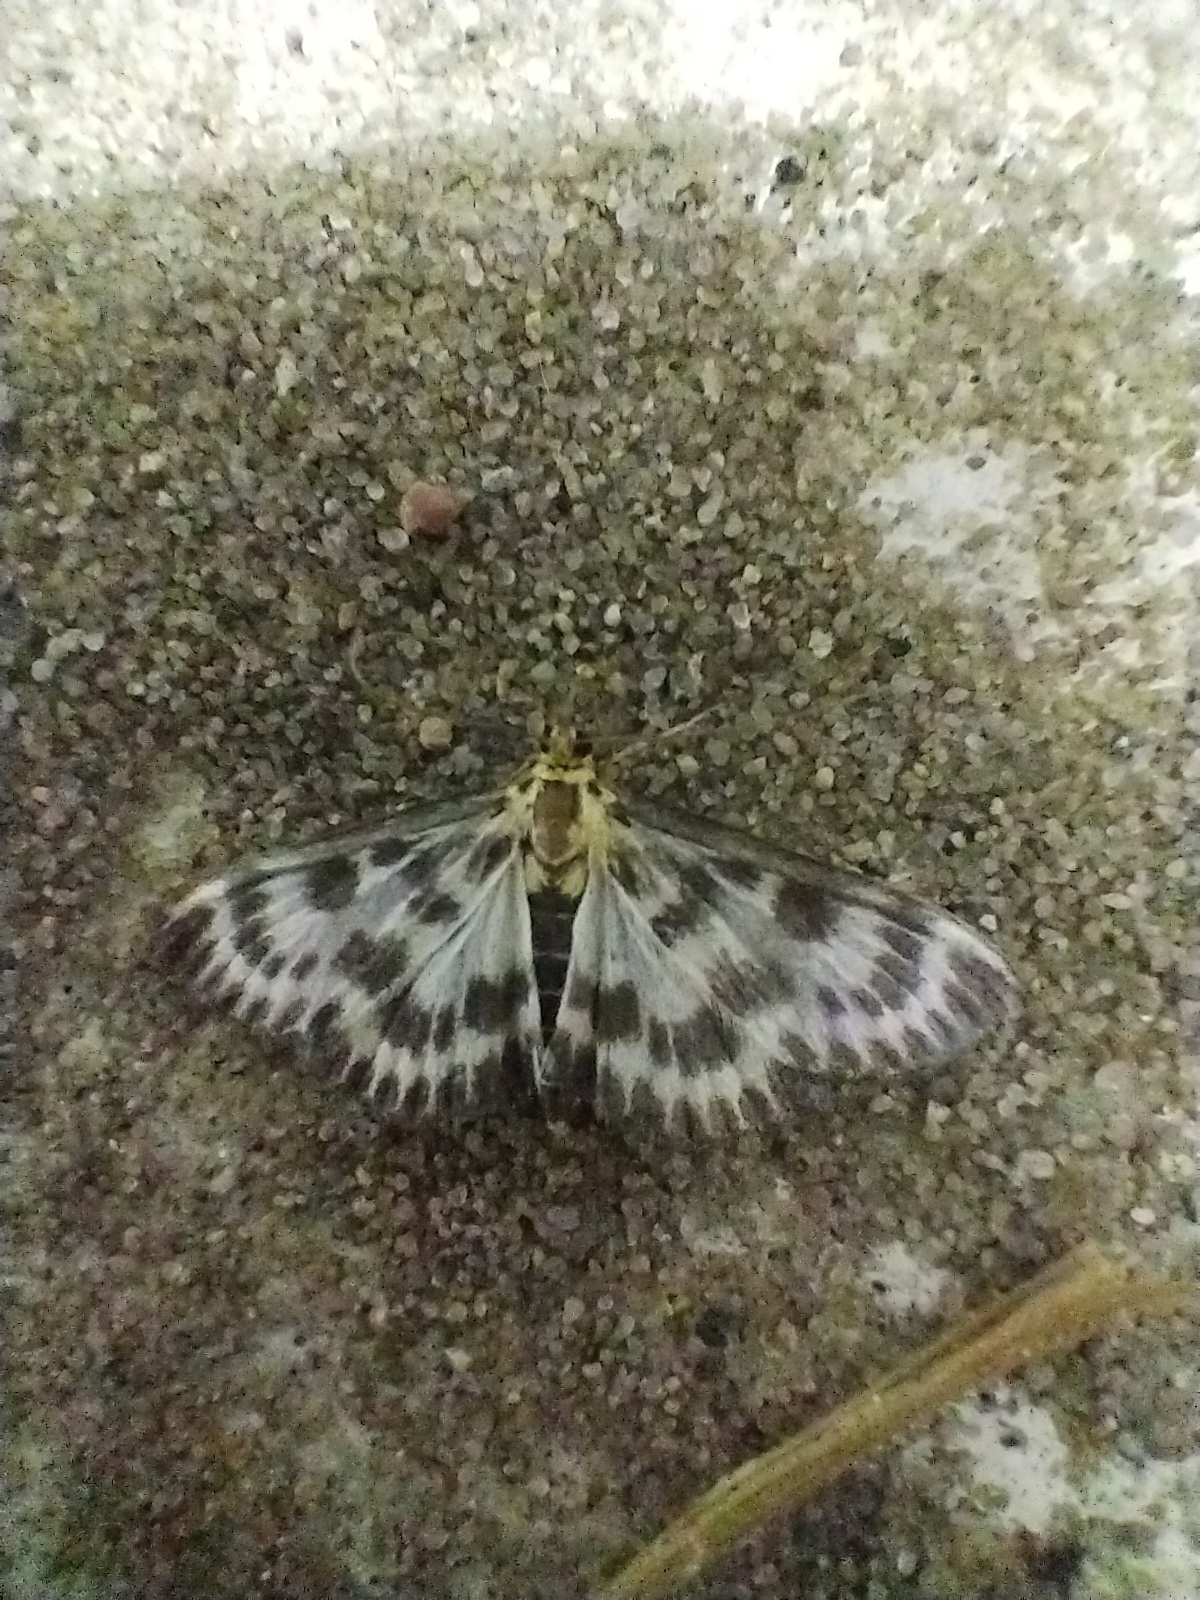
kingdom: Animalia
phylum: Arthropoda
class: Insecta
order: Lepidoptera
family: Crambidae
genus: Anania
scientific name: Anania hortulata
